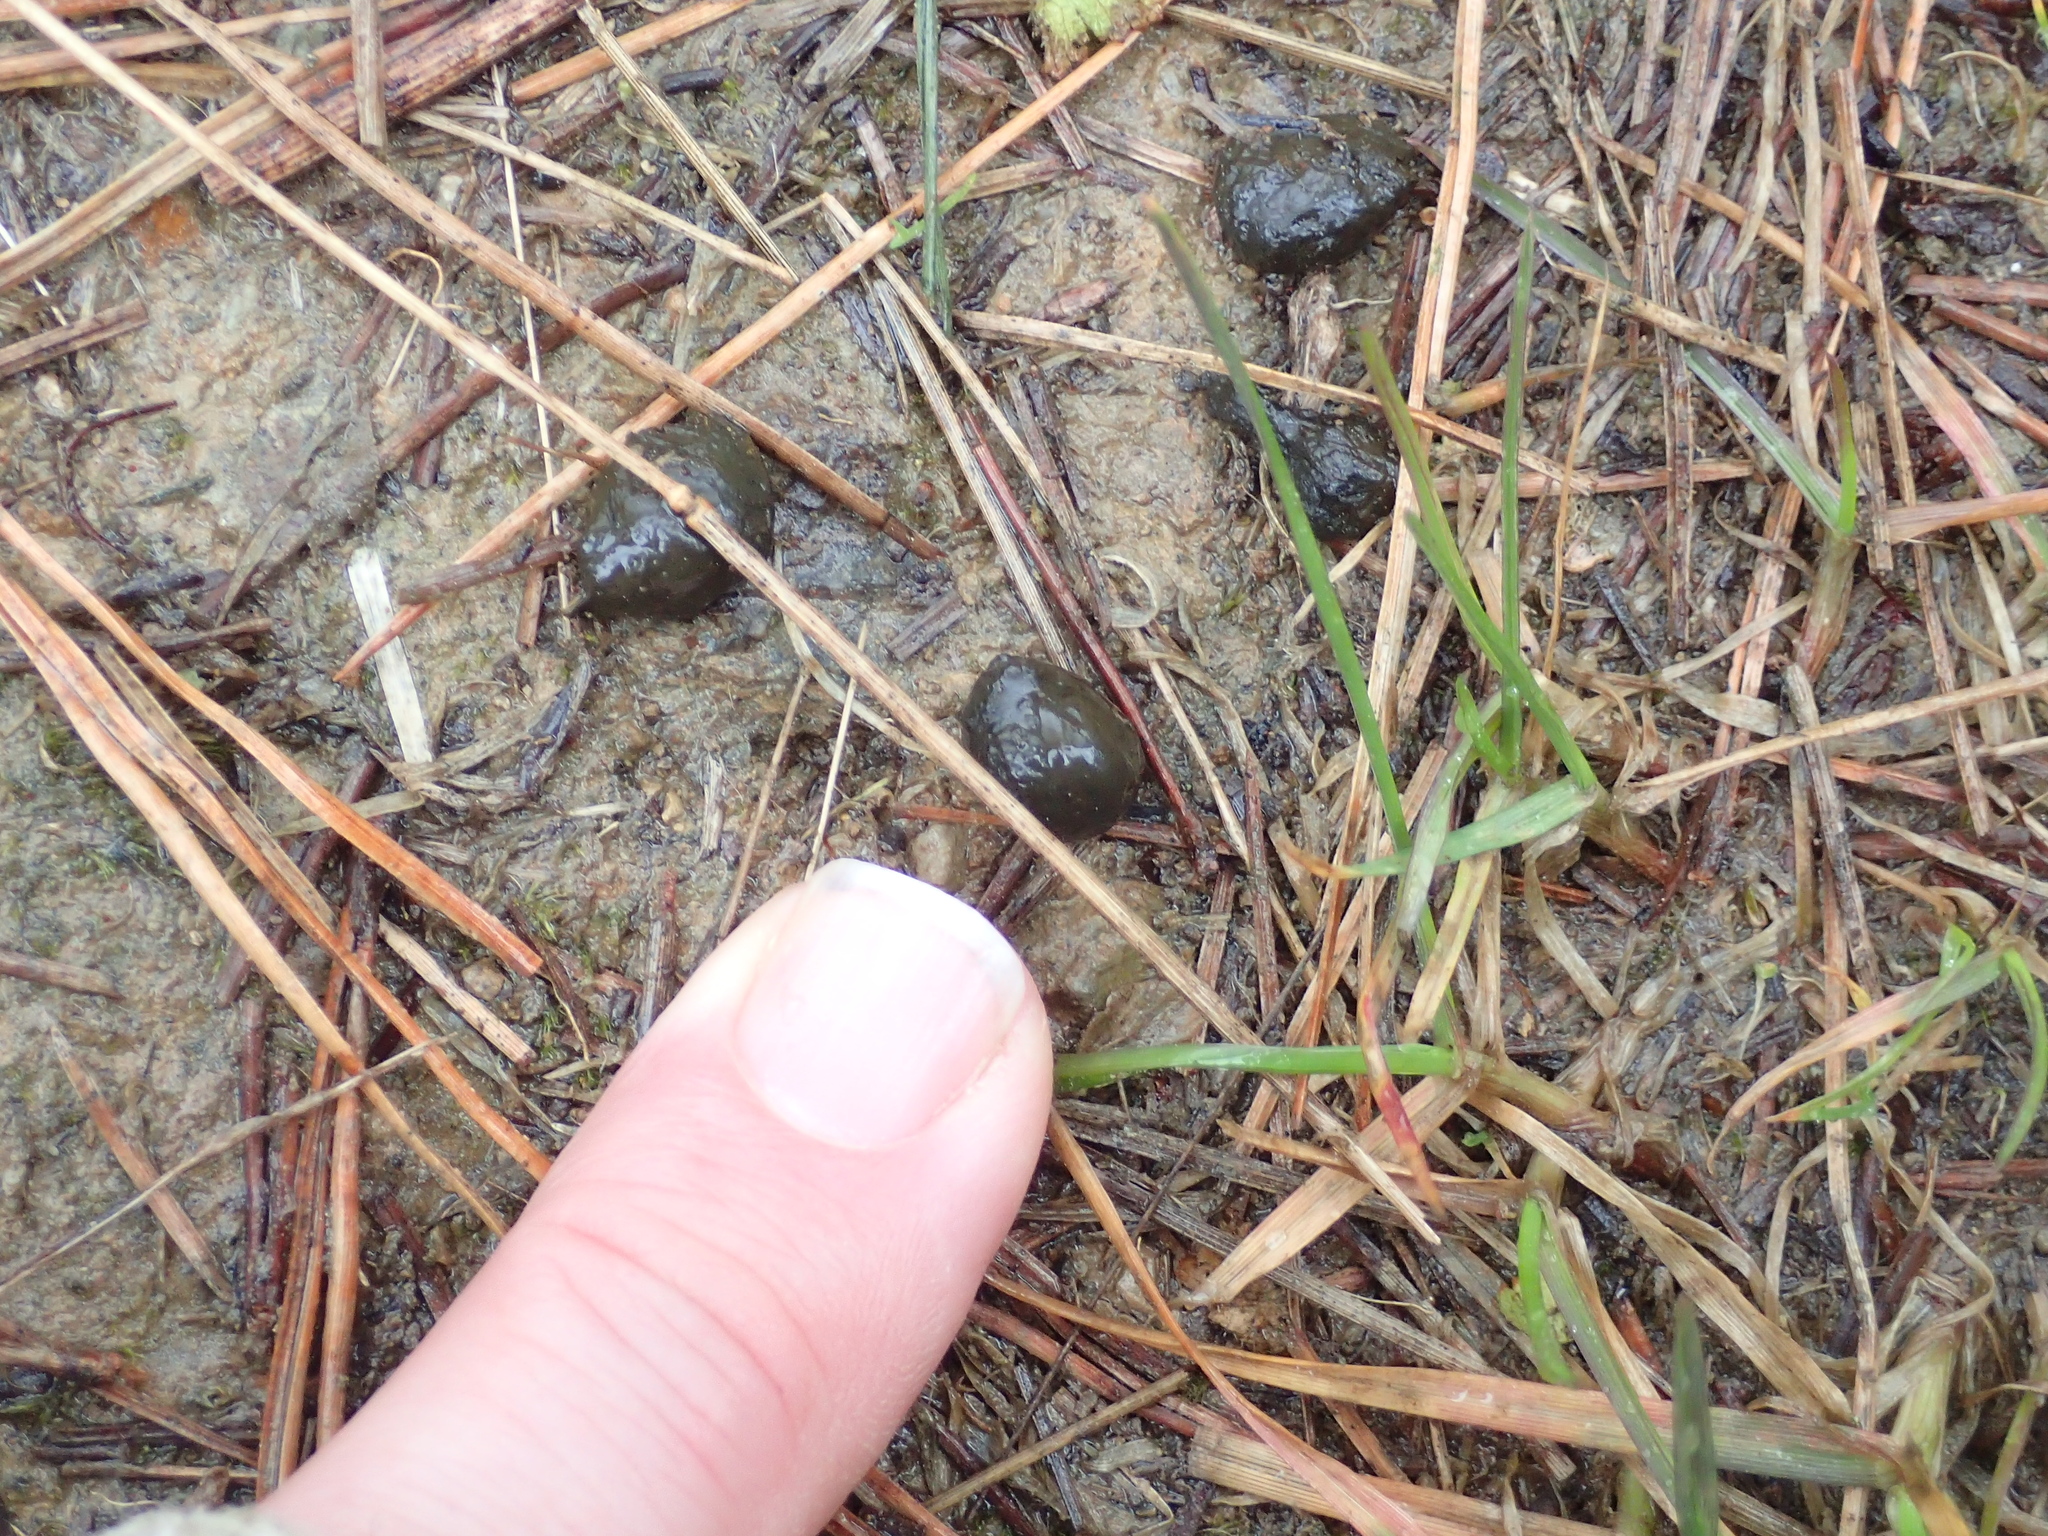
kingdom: Animalia
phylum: Chordata
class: Mammalia
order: Lagomorpha
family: Leporidae
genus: Oryctolagus
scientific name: Oryctolagus cuniculus
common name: European rabbit
